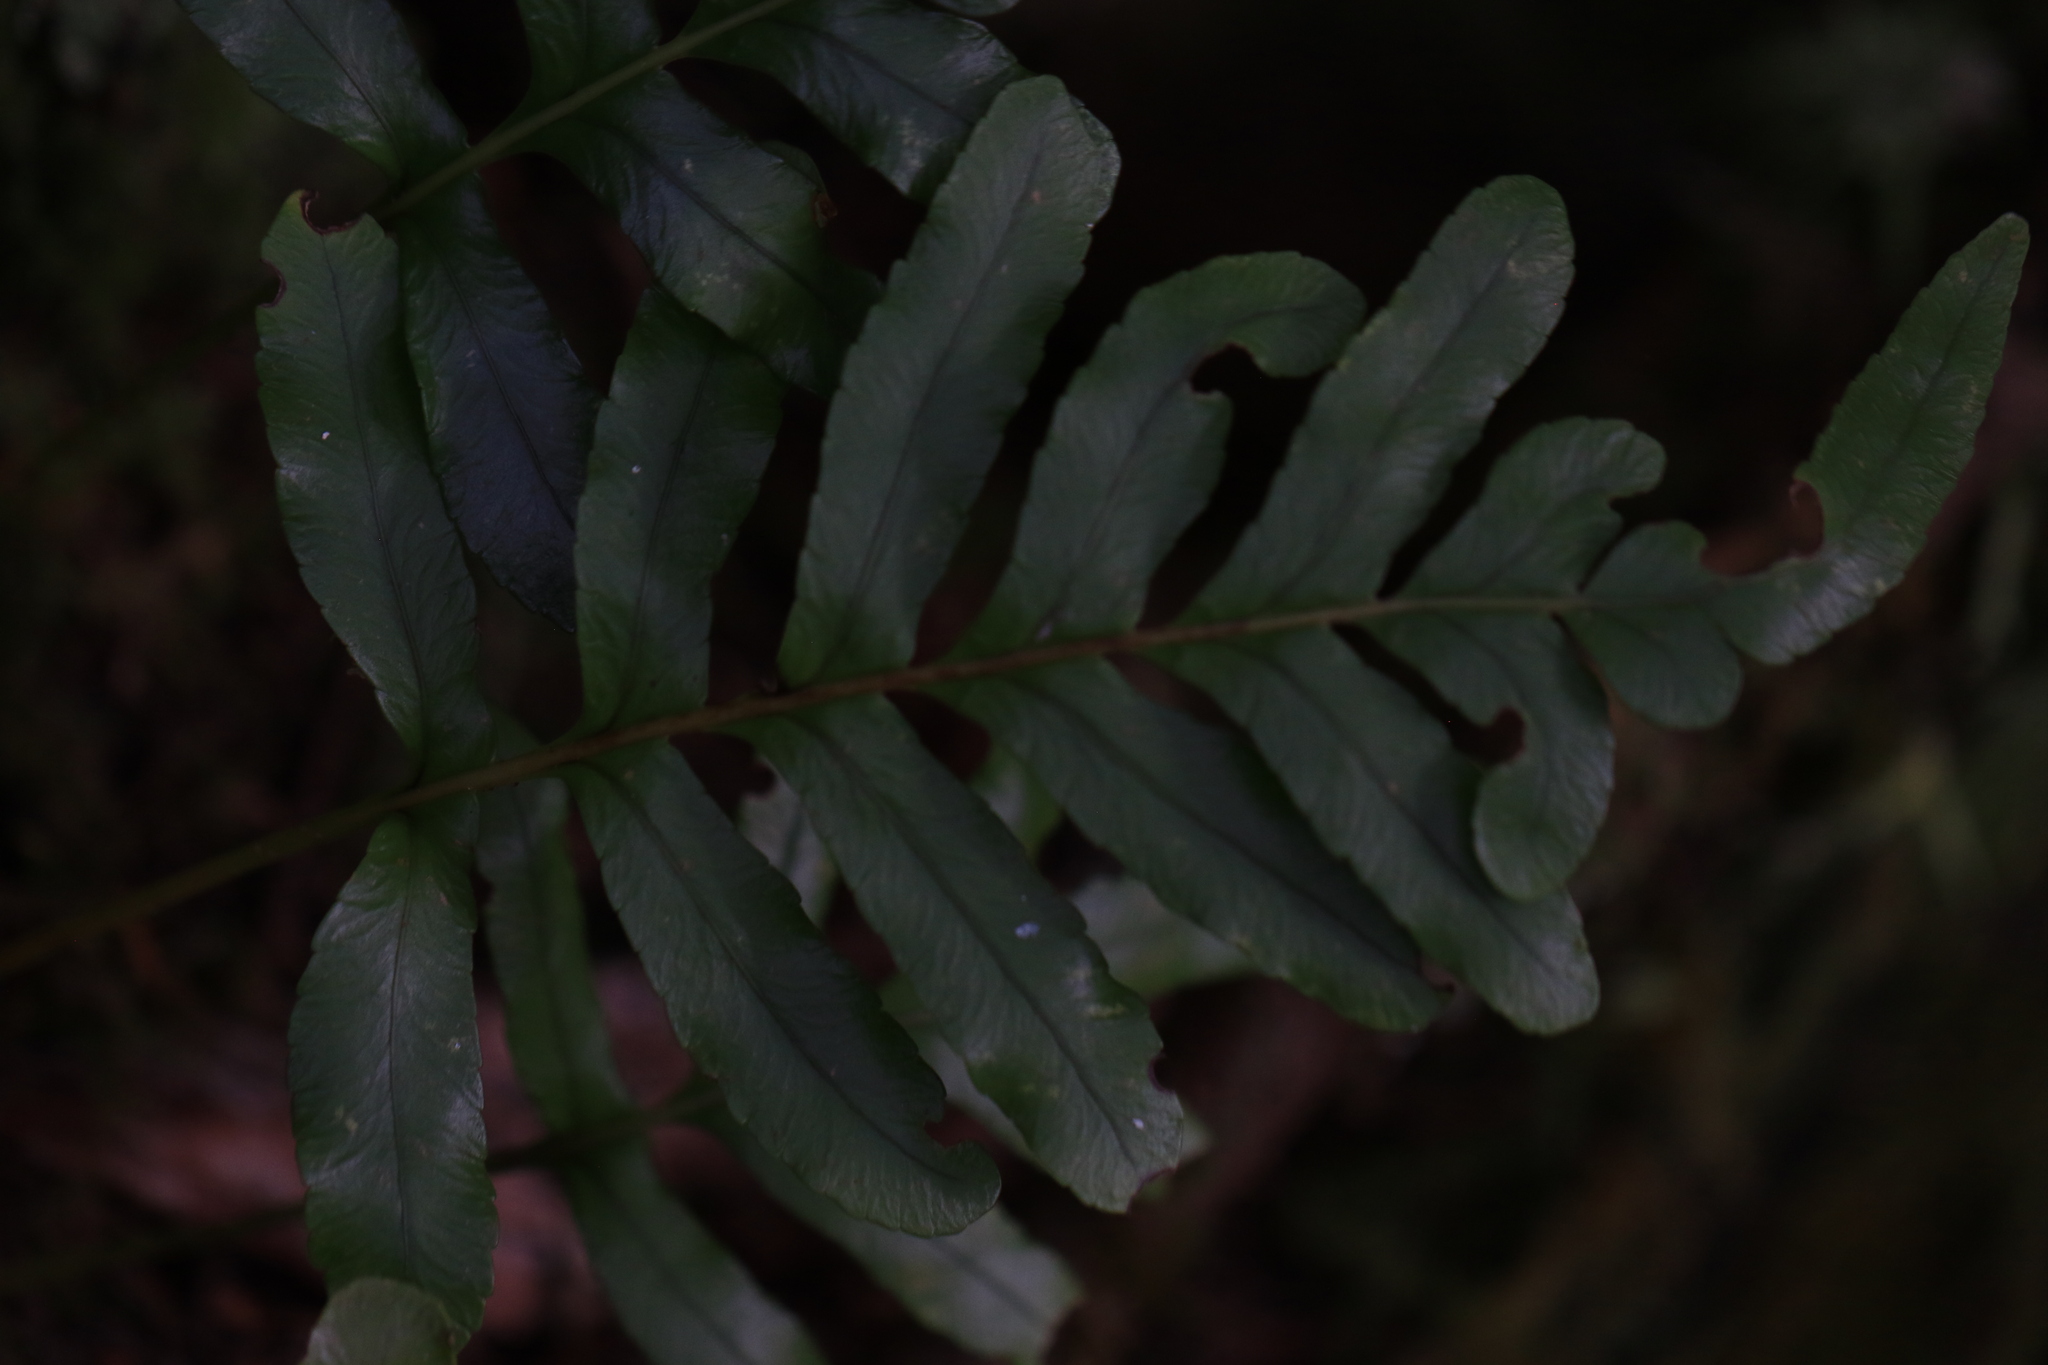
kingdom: Plantae
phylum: Tracheophyta
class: Polypodiopsida
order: Polypodiales
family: Polypodiaceae
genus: Polypodium
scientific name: Polypodium scouleri
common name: Scouler's polypody
